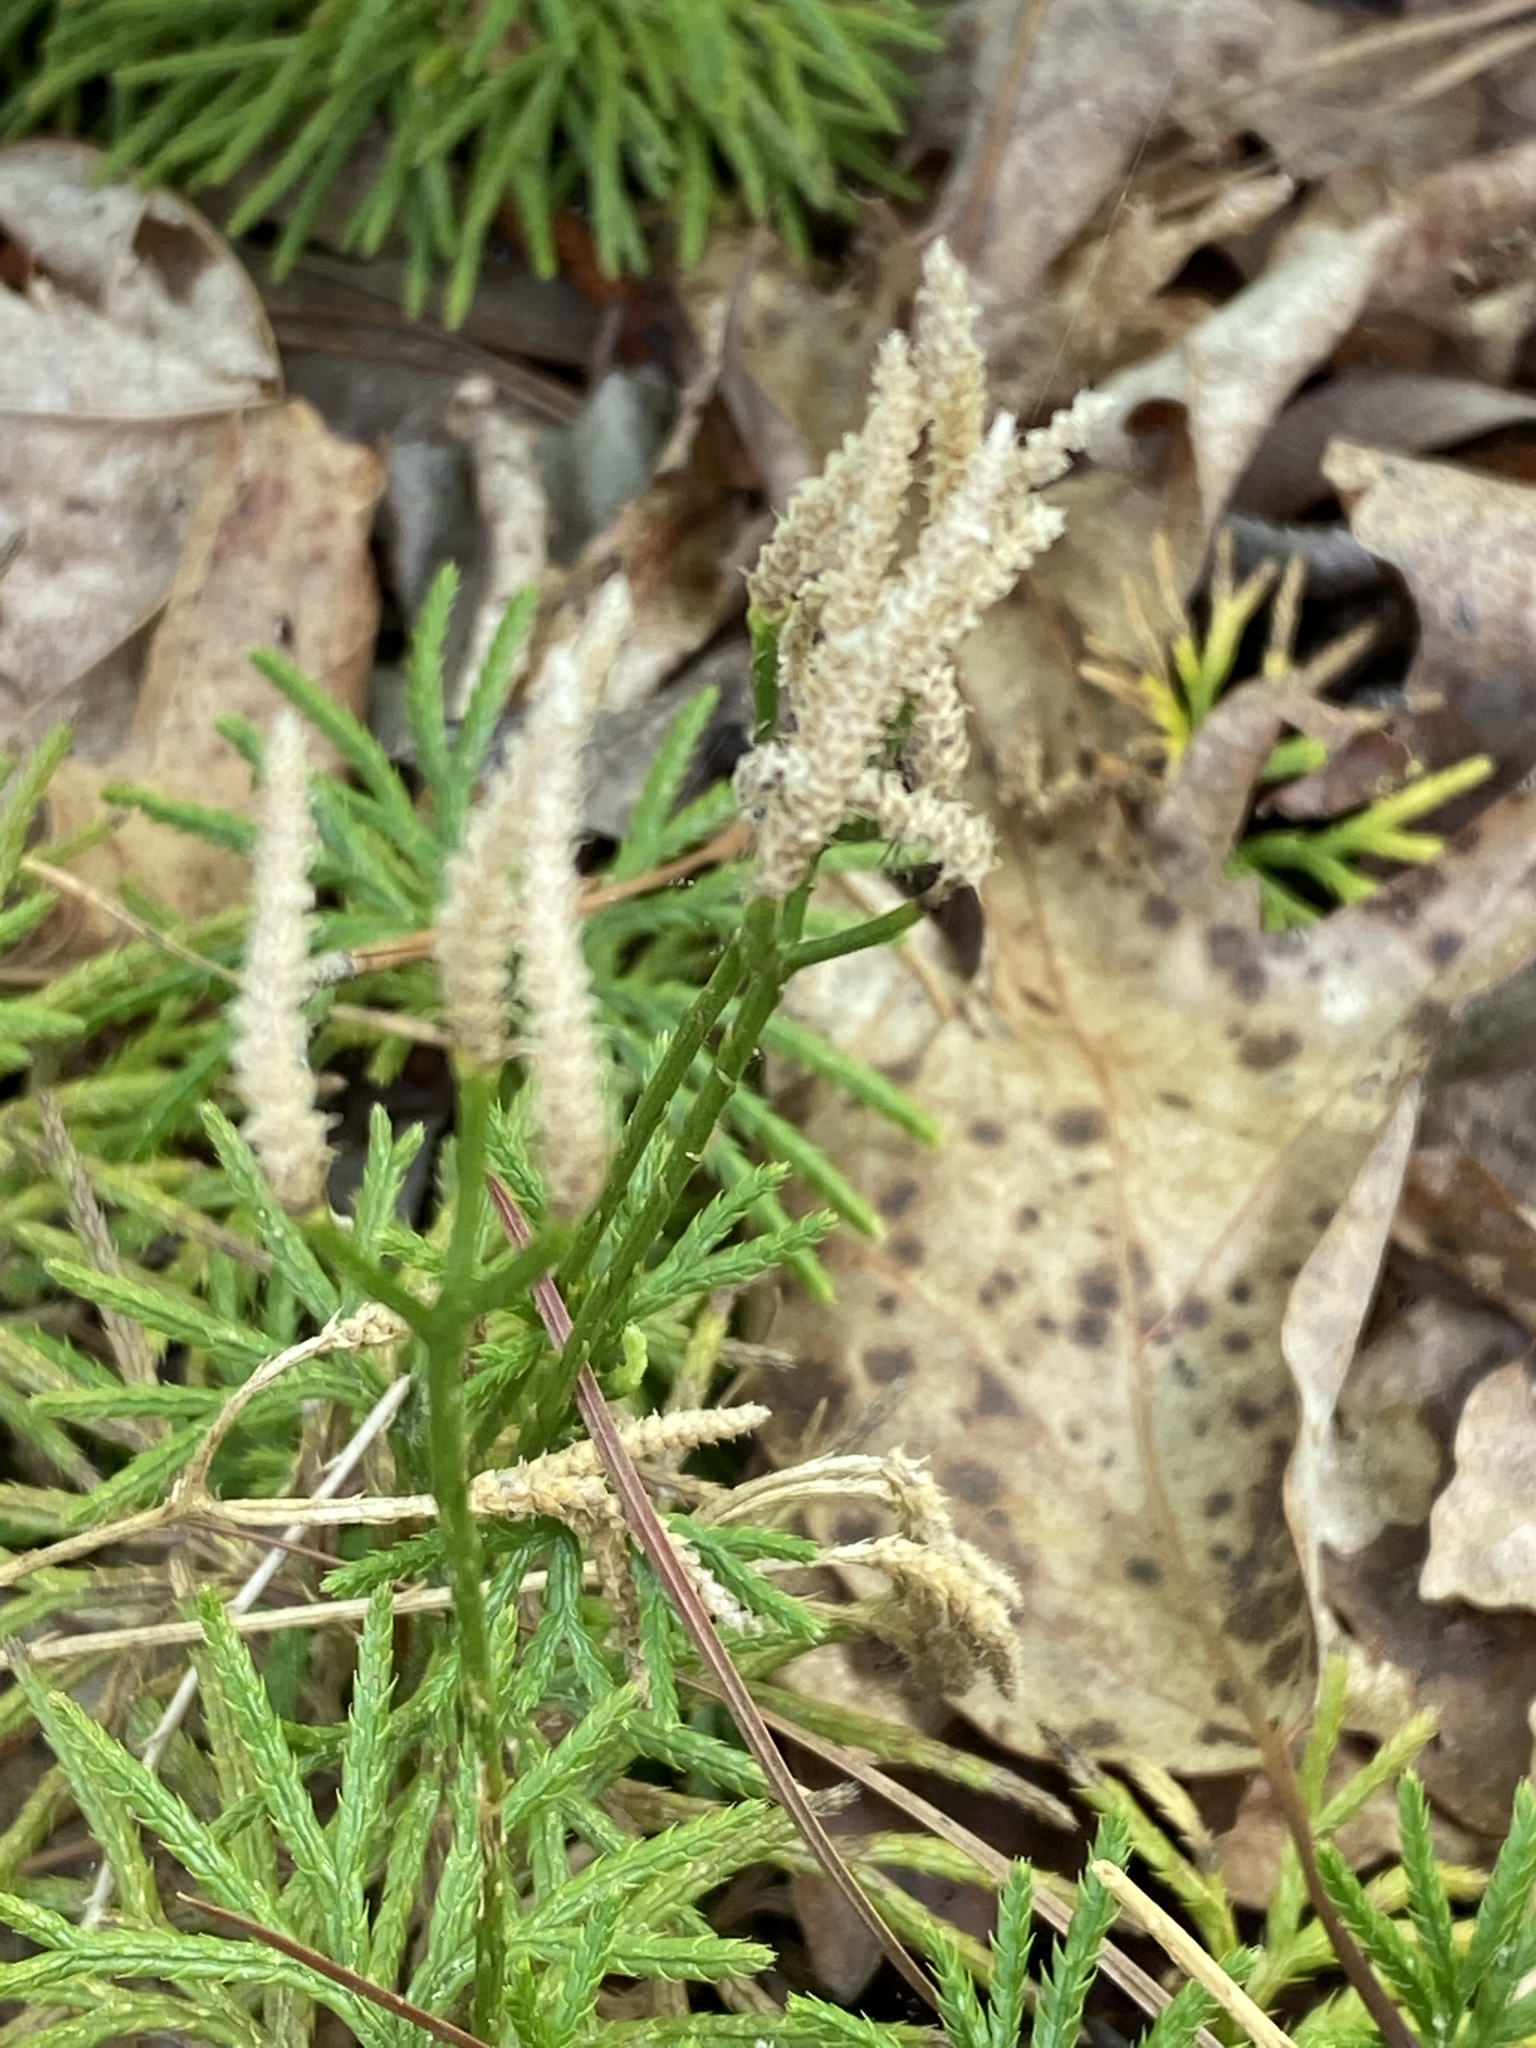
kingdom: Plantae
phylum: Tracheophyta
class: Lycopodiopsida
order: Lycopodiales
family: Lycopodiaceae
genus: Diphasiastrum
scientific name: Diphasiastrum digitatum
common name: Southern running-pine
